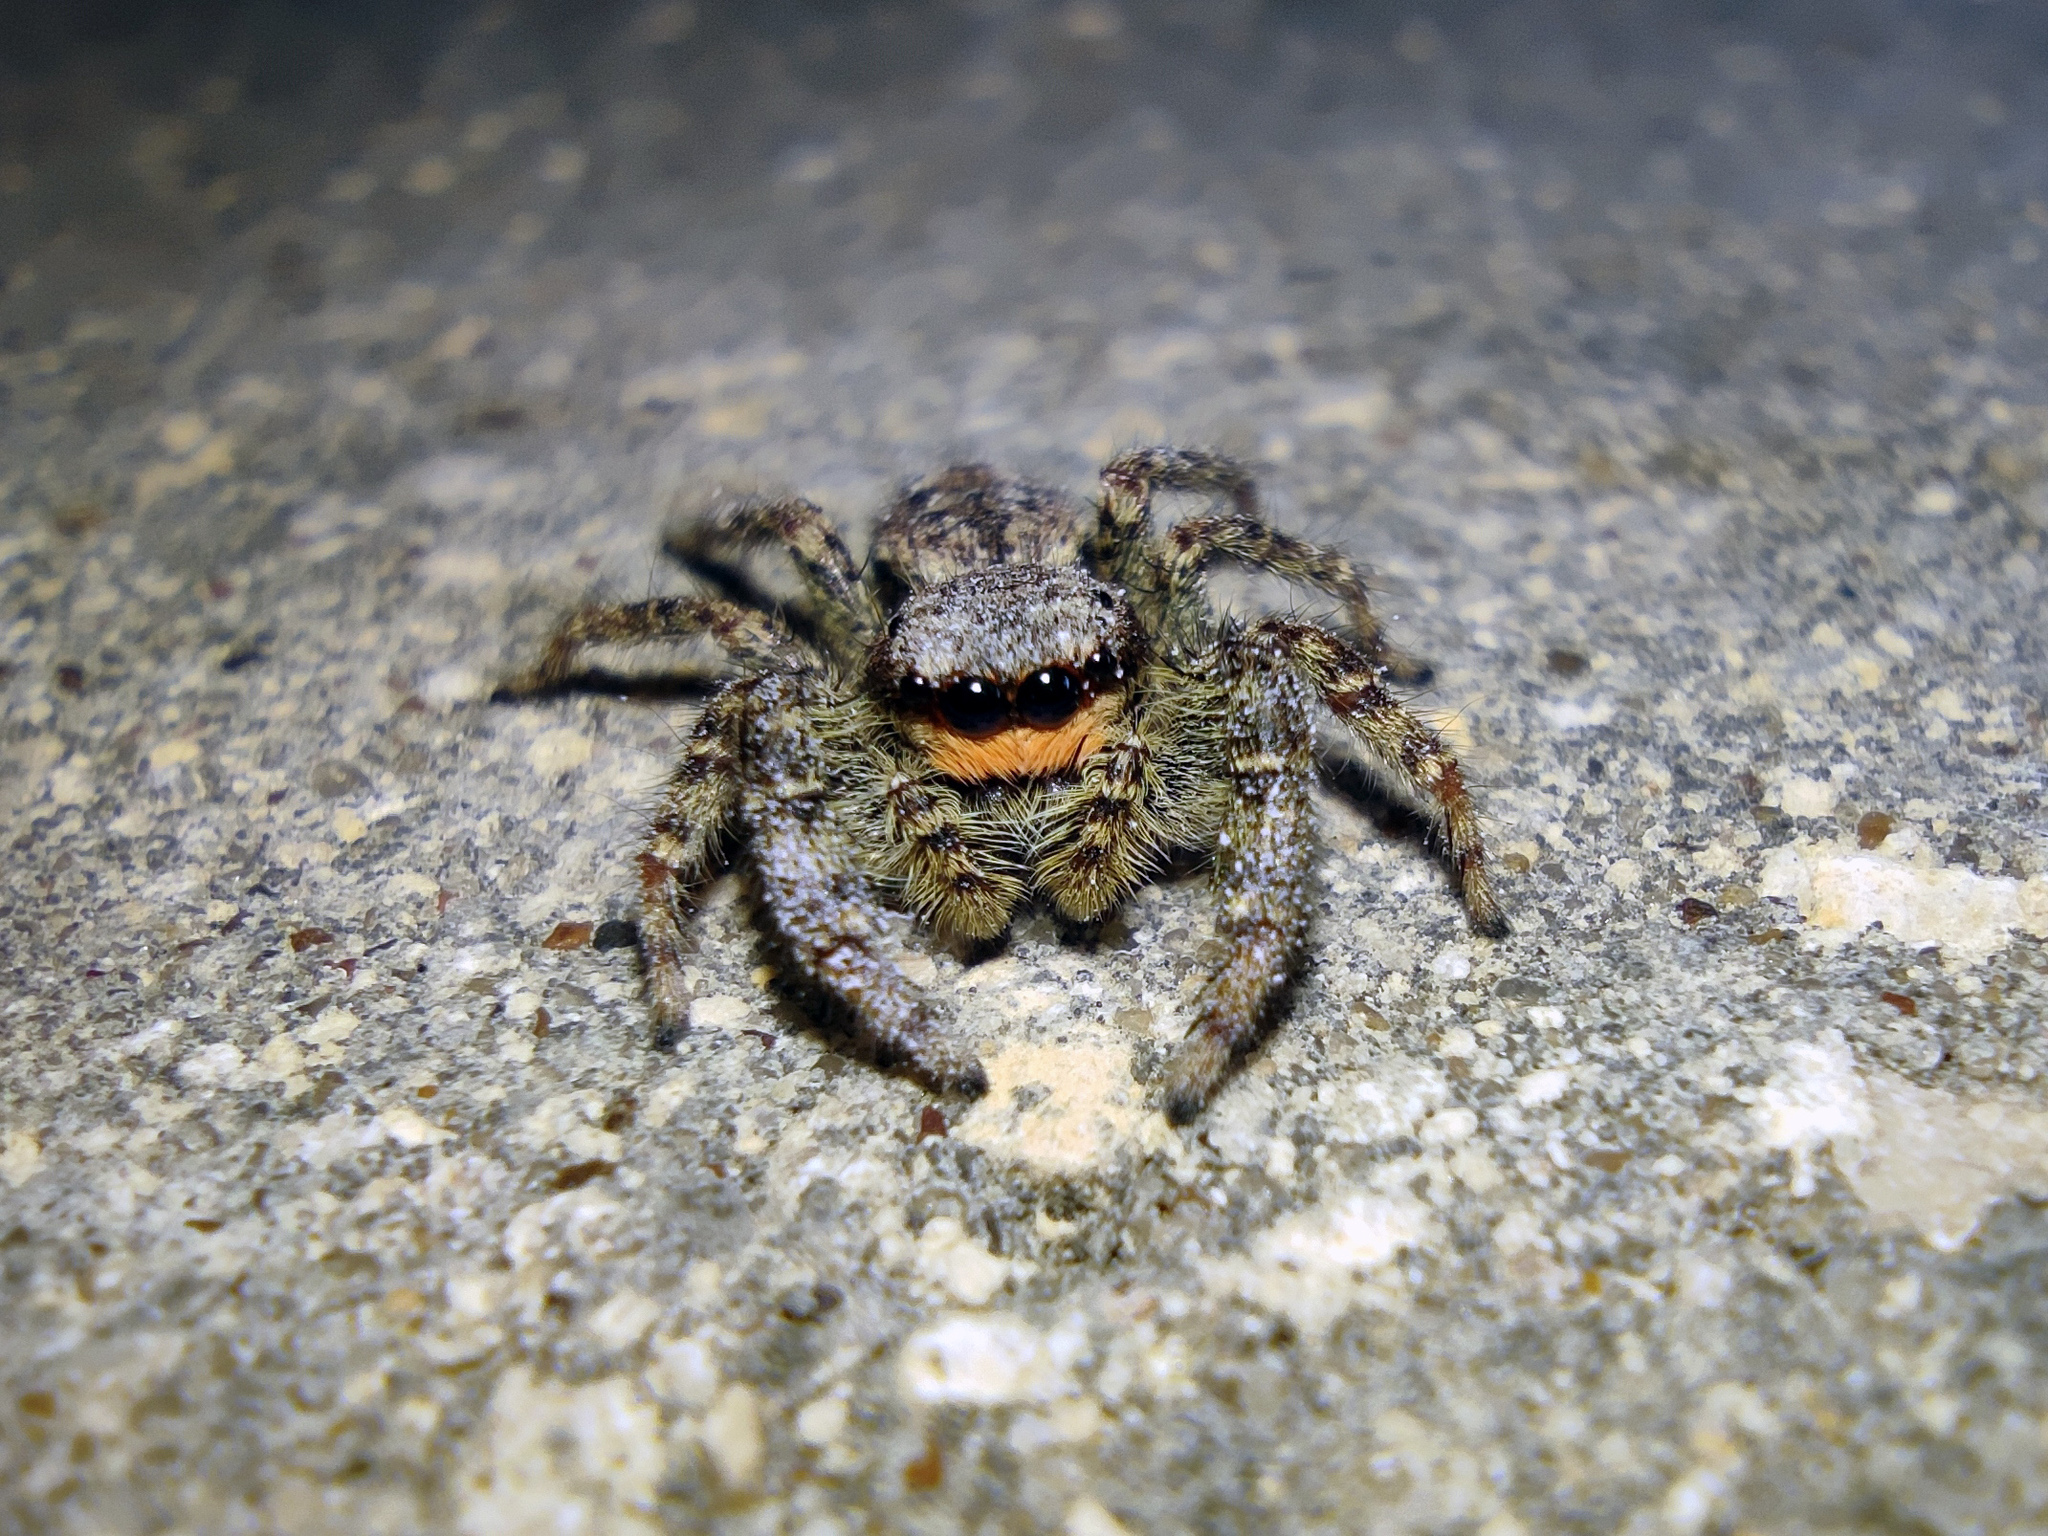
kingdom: Animalia
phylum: Arthropoda
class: Arachnida
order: Araneae
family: Salticidae
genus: Marpissa
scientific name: Marpissa muscosa
